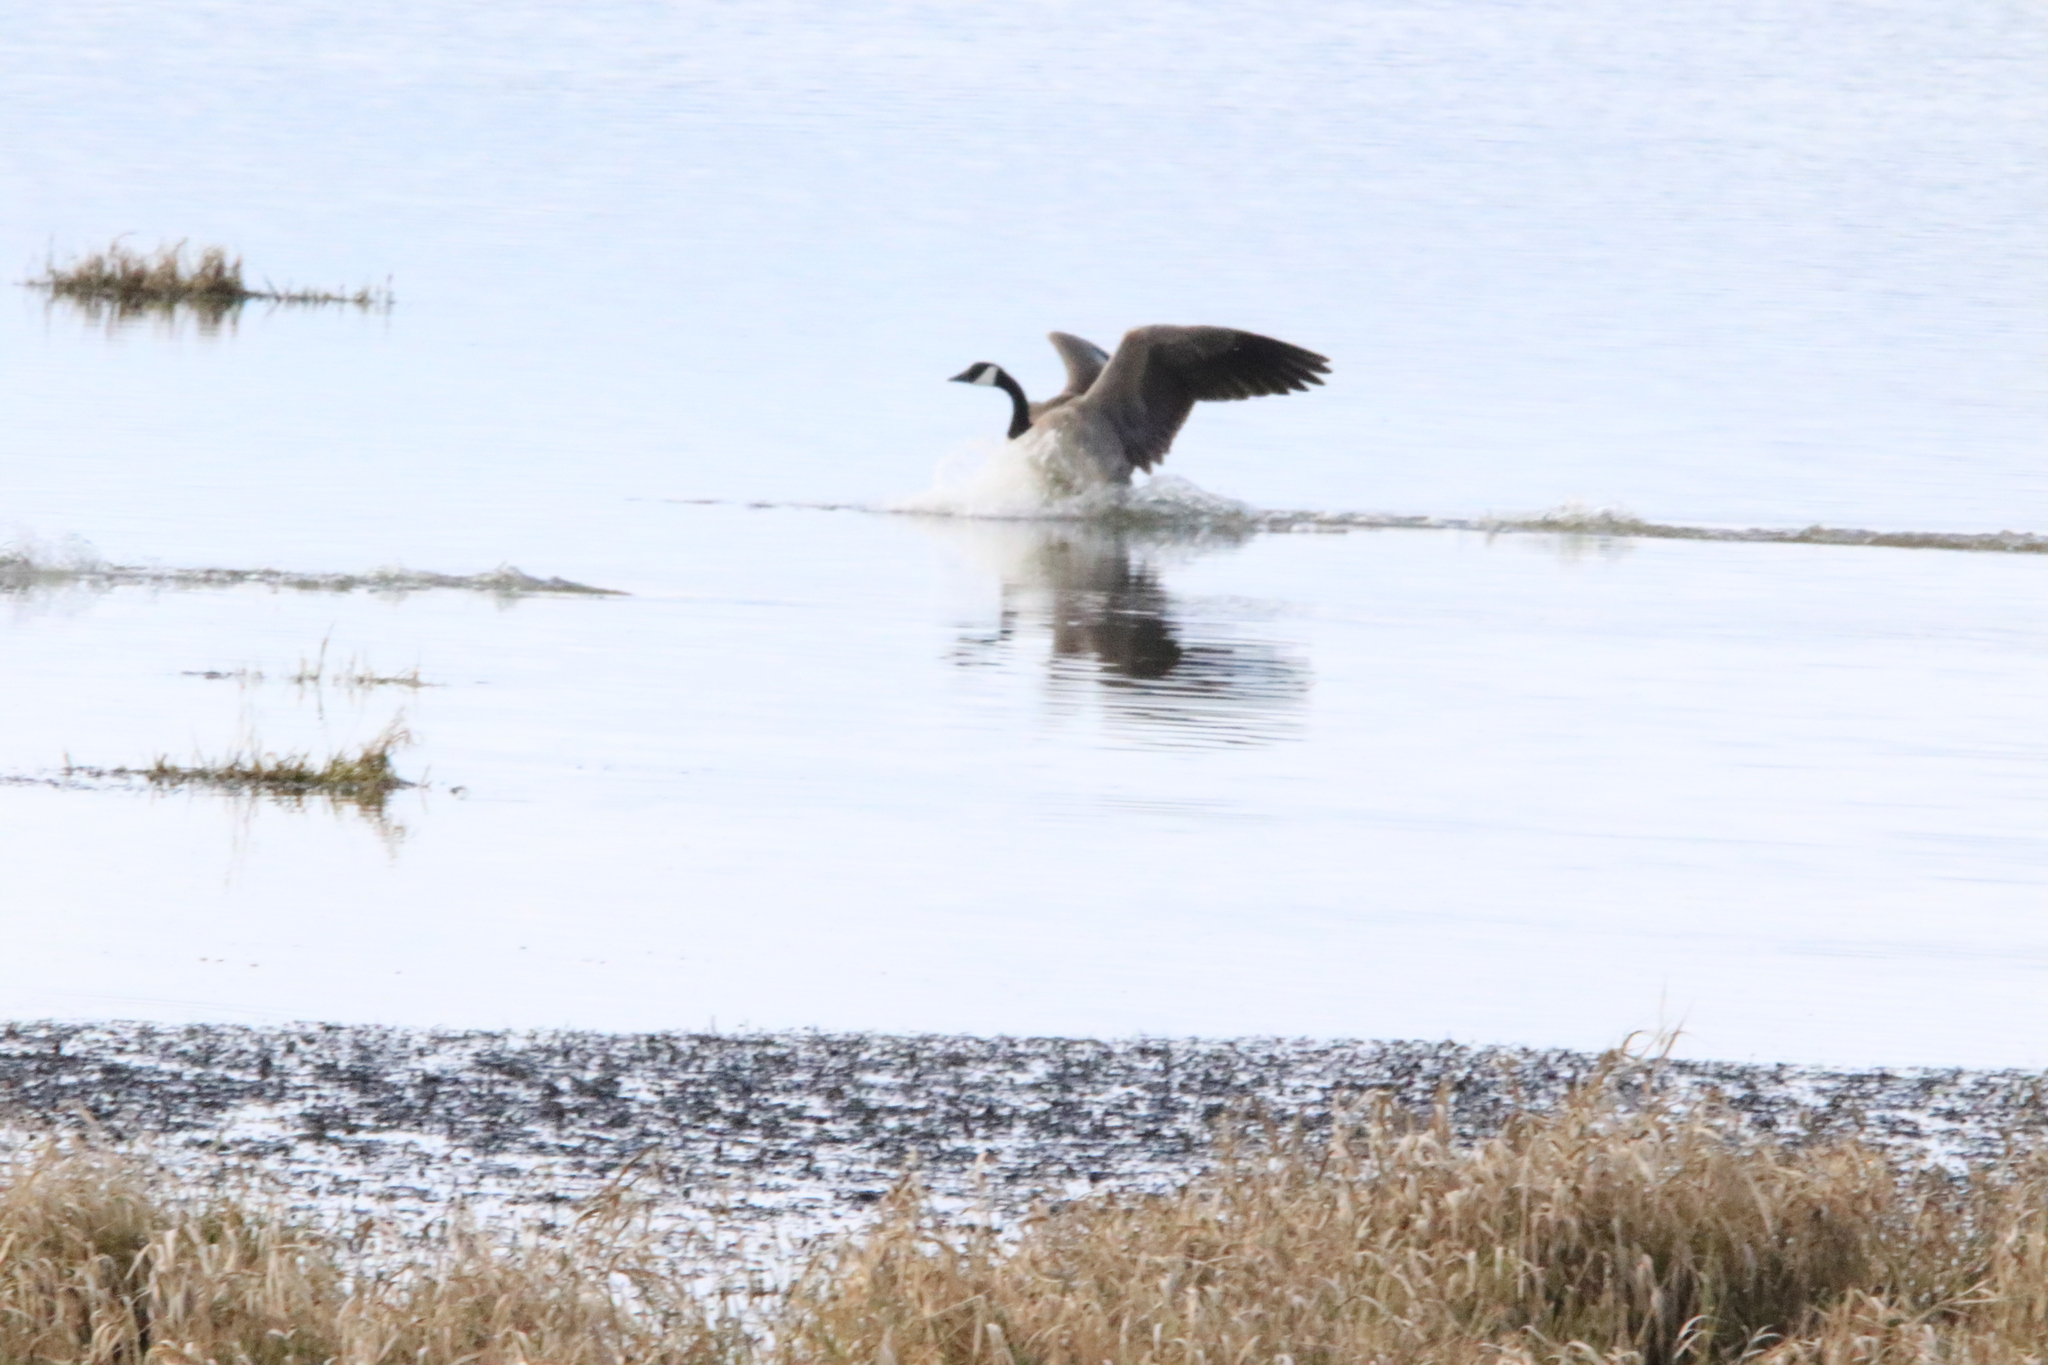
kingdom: Animalia
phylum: Chordata
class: Aves
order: Anseriformes
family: Anatidae
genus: Branta
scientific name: Branta canadensis
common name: Canada goose
